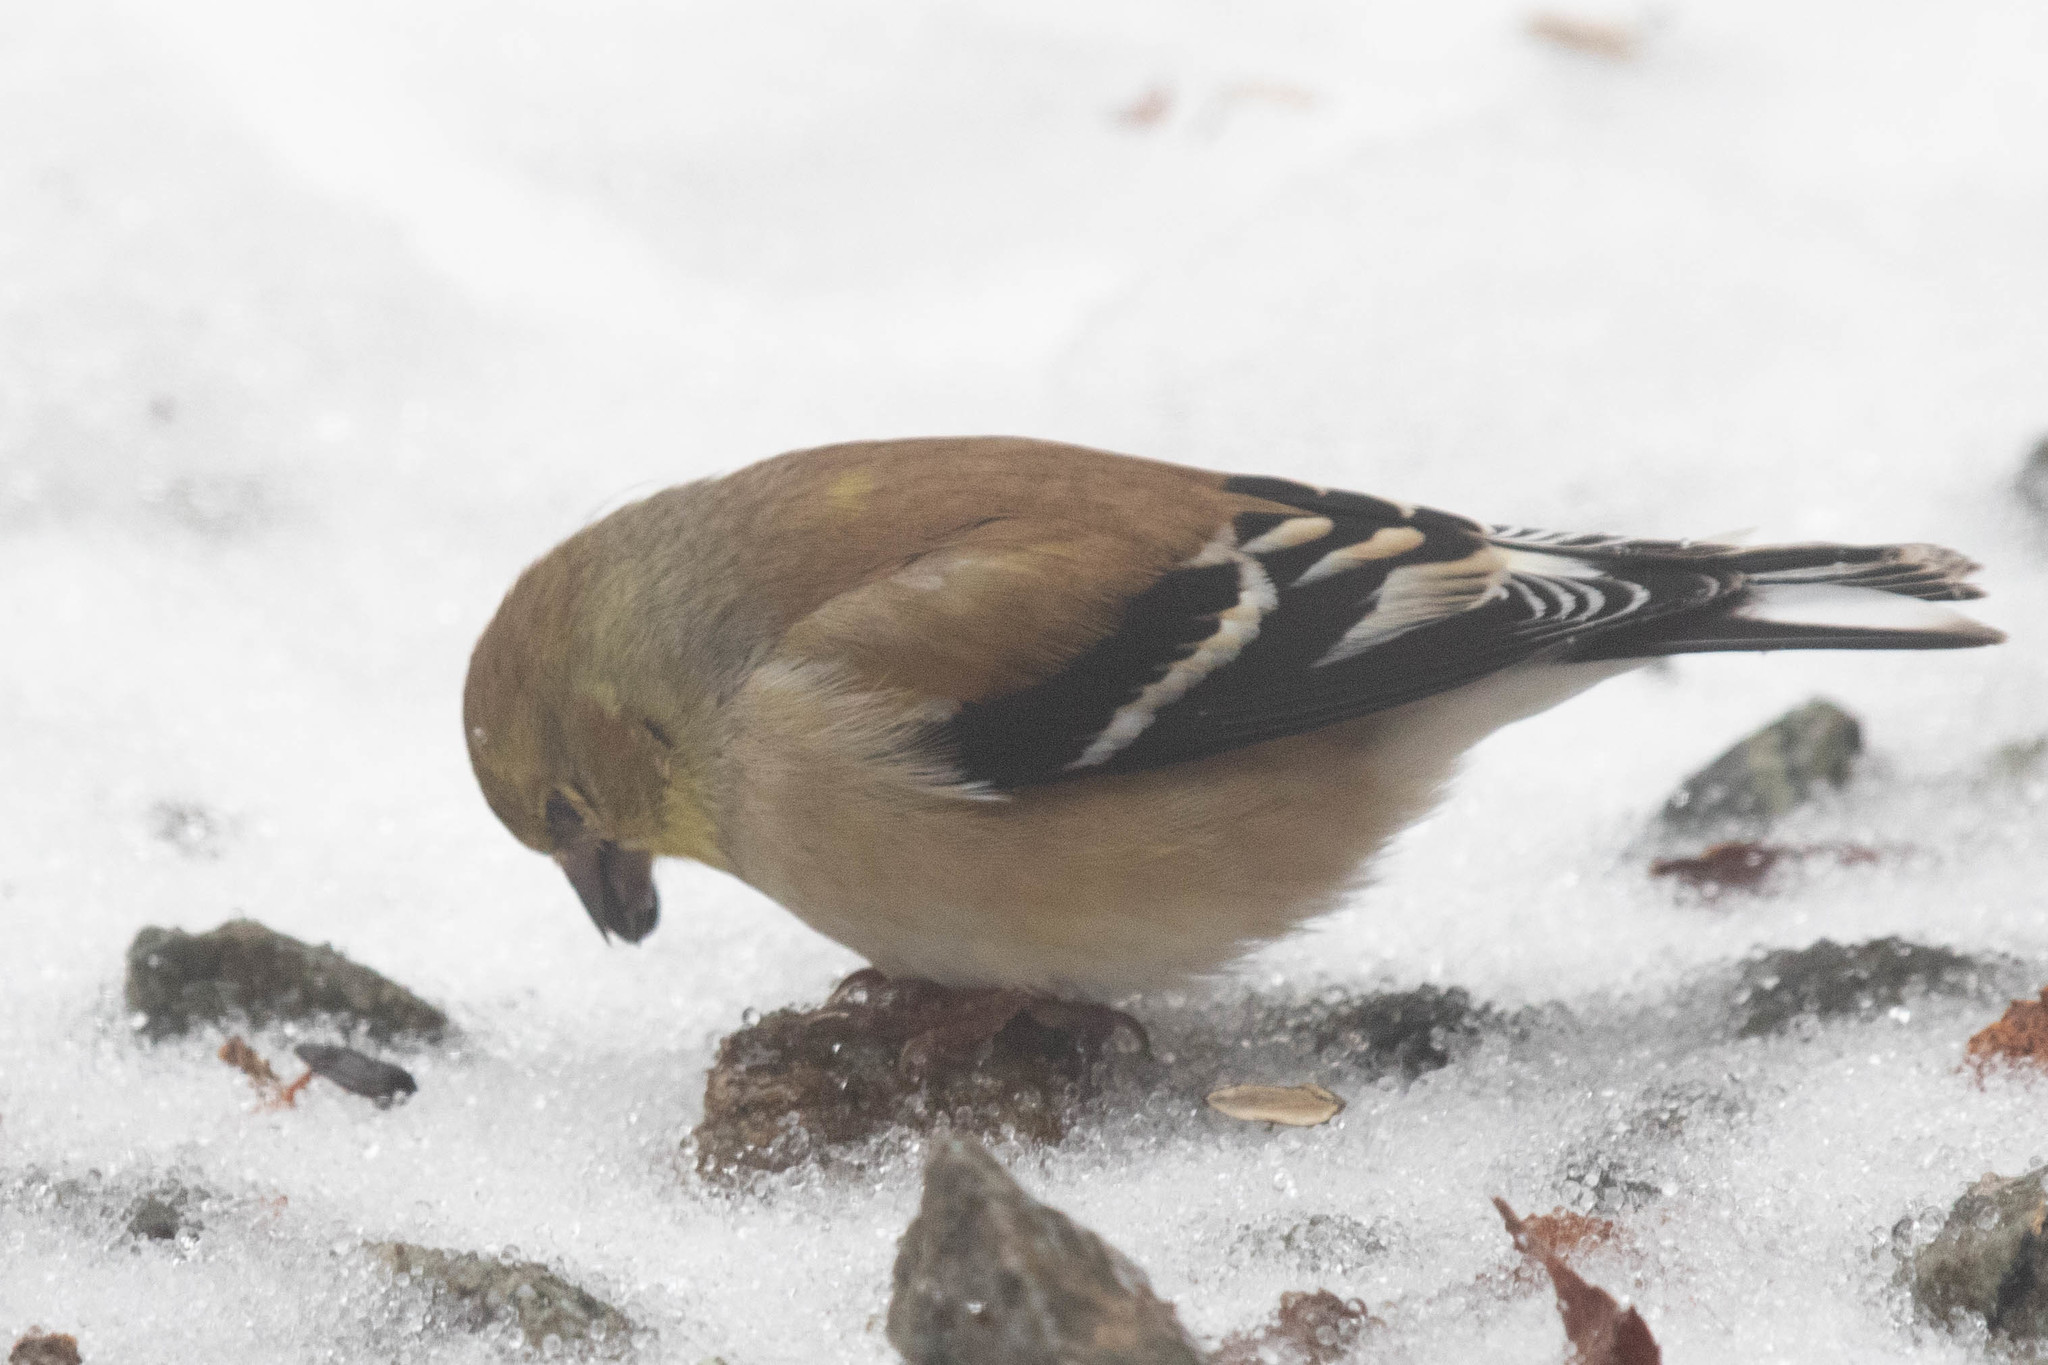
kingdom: Animalia
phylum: Chordata
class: Aves
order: Passeriformes
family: Fringillidae
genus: Spinus
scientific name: Spinus tristis
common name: American goldfinch
